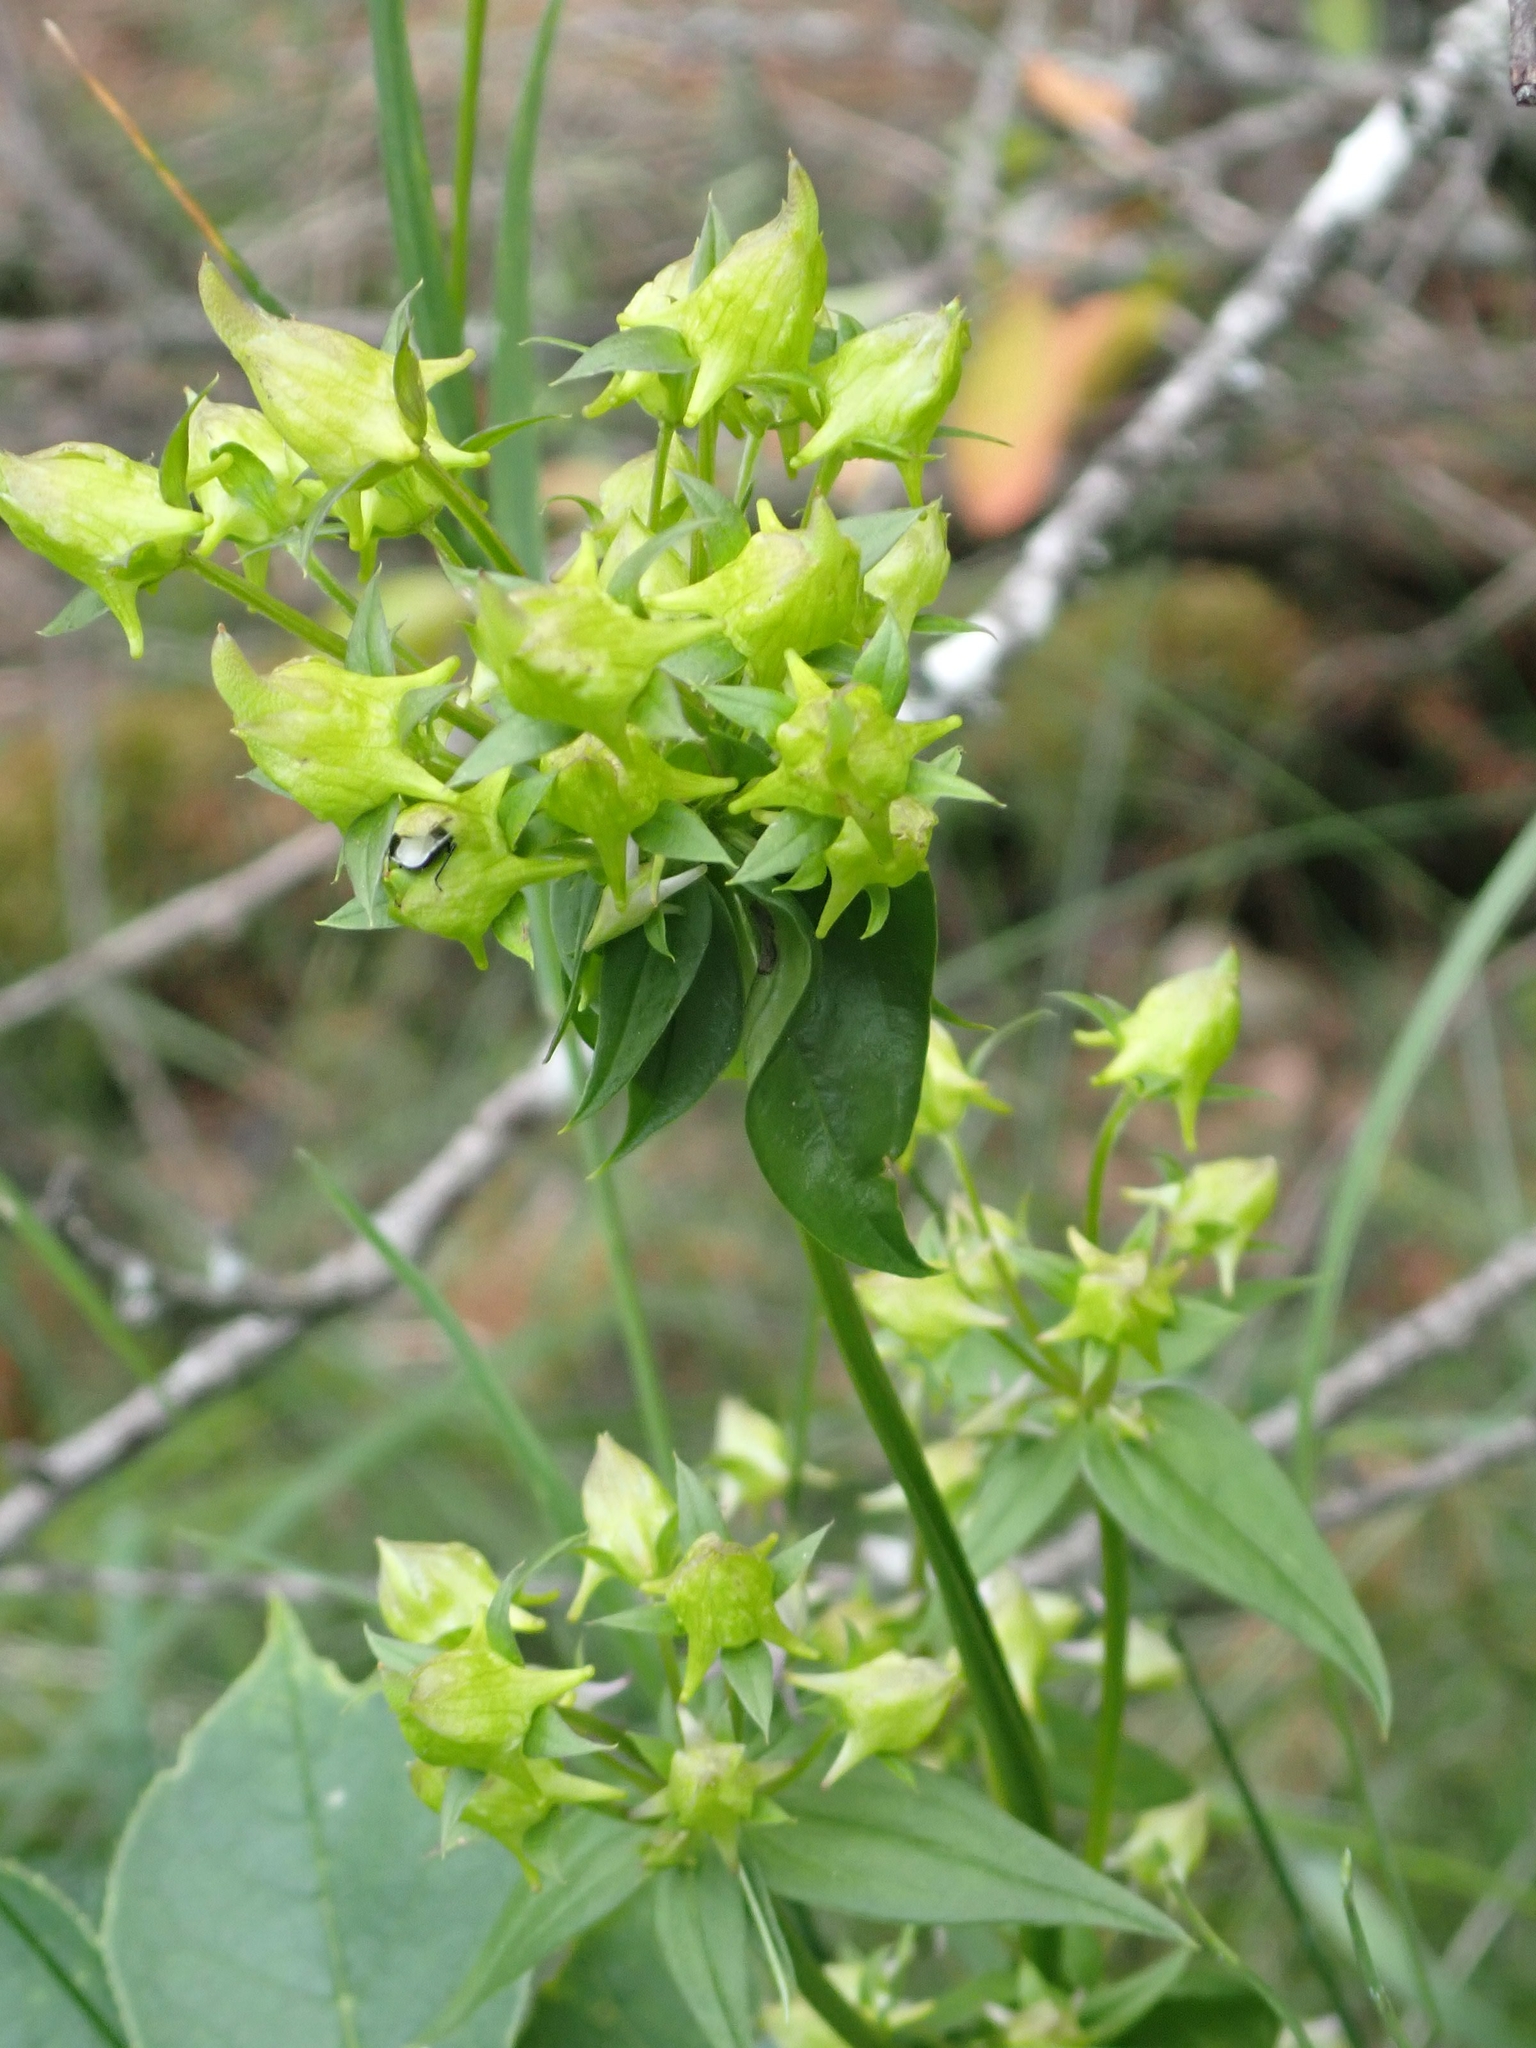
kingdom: Plantae
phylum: Tracheophyta
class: Magnoliopsida
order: Gentianales
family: Gentianaceae
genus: Halenia
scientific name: Halenia deflexa
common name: American spurred gentian
